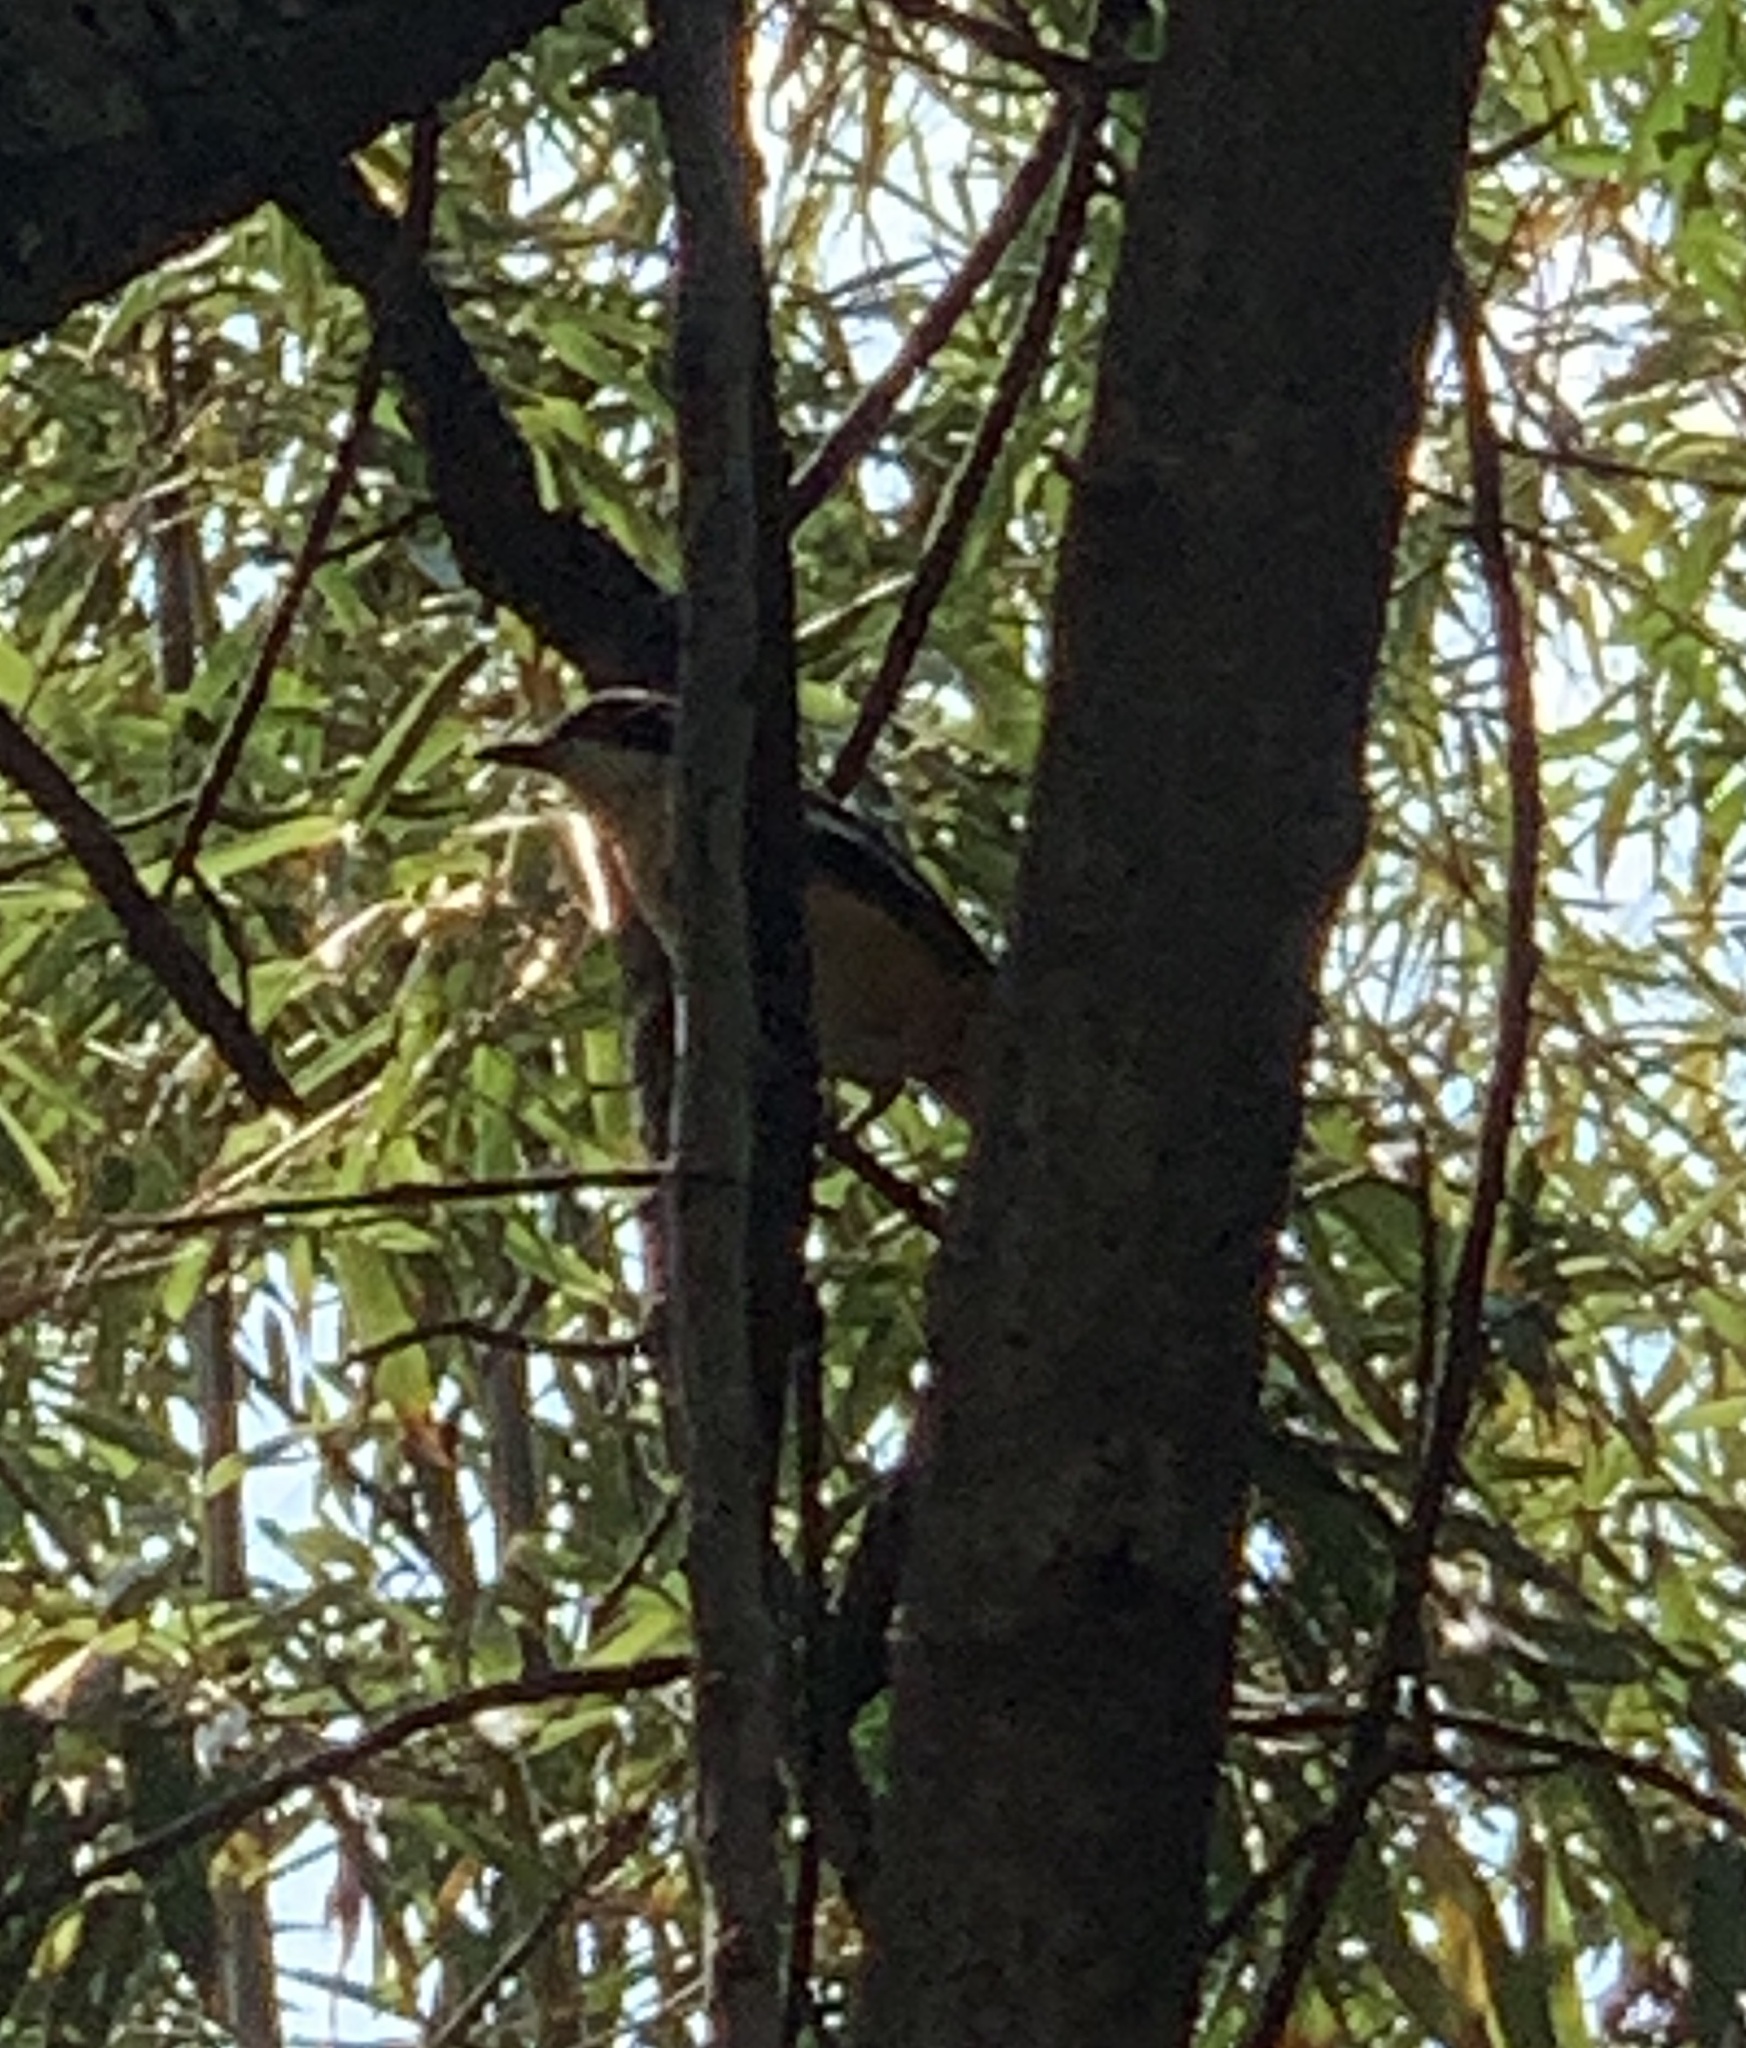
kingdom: Animalia
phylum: Chordata
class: Aves
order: Passeriformes
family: Malaconotidae
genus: Laniarius
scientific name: Laniarius ferrugineus
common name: Southern boubou
